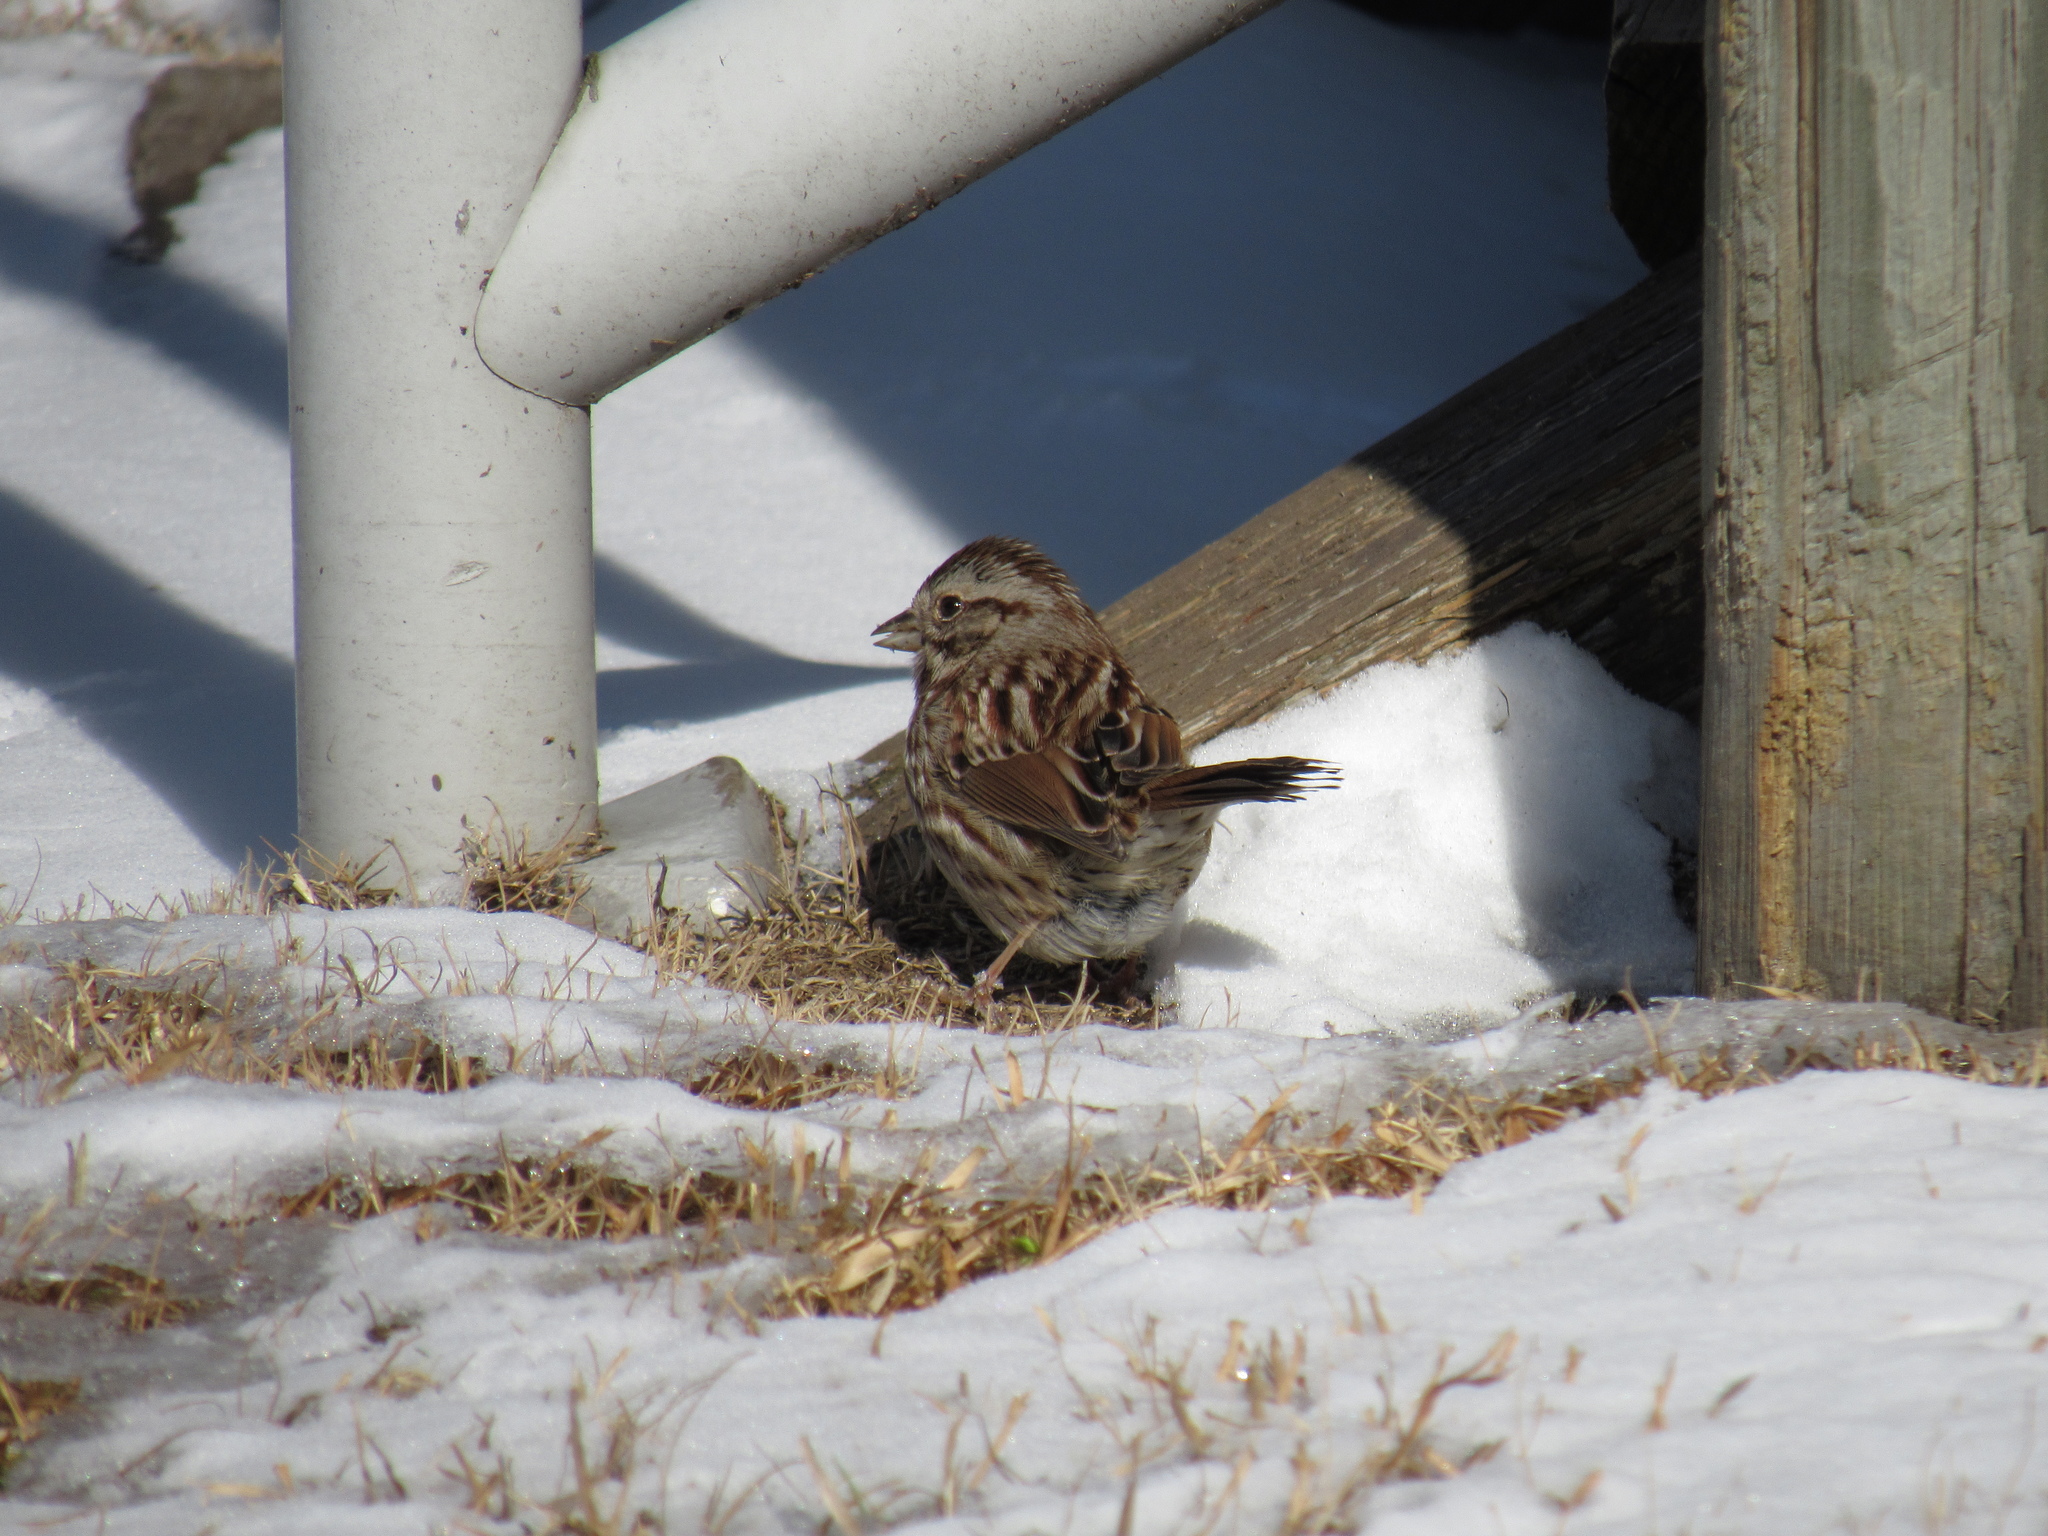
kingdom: Animalia
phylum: Chordata
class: Aves
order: Passeriformes
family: Passerellidae
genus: Melospiza
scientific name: Melospiza melodia
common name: Song sparrow
